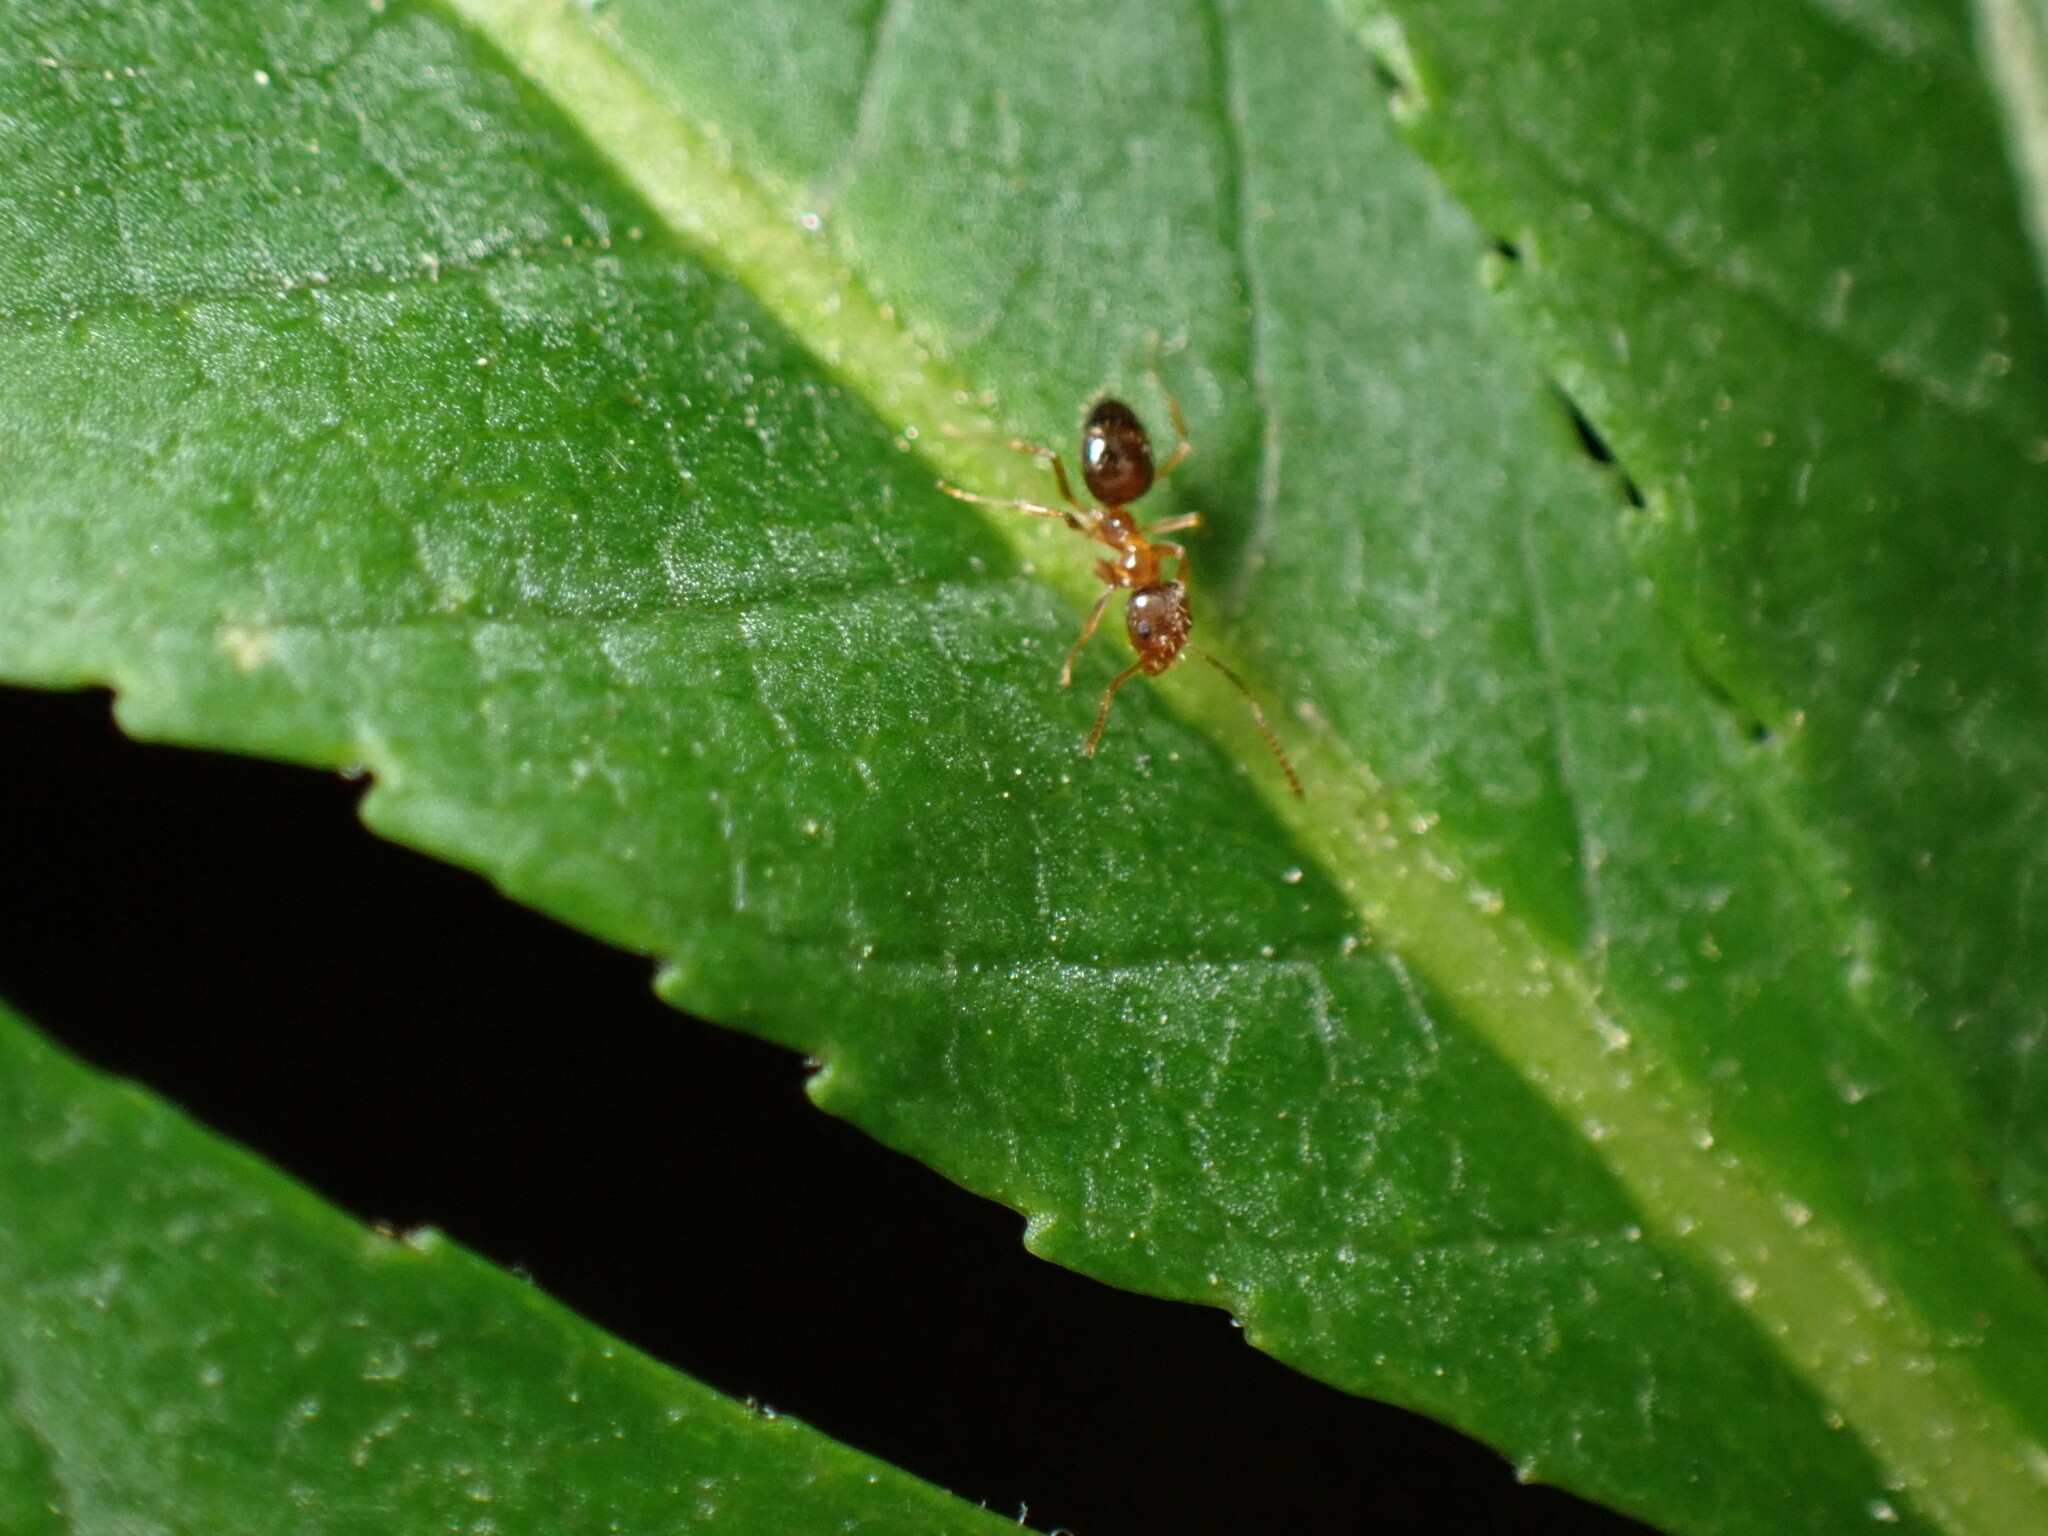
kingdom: Animalia
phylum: Arthropoda
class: Insecta
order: Hymenoptera
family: Formicidae
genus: Paratrechina
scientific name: Paratrechina flavipes
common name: Eastern asian formicine ant
